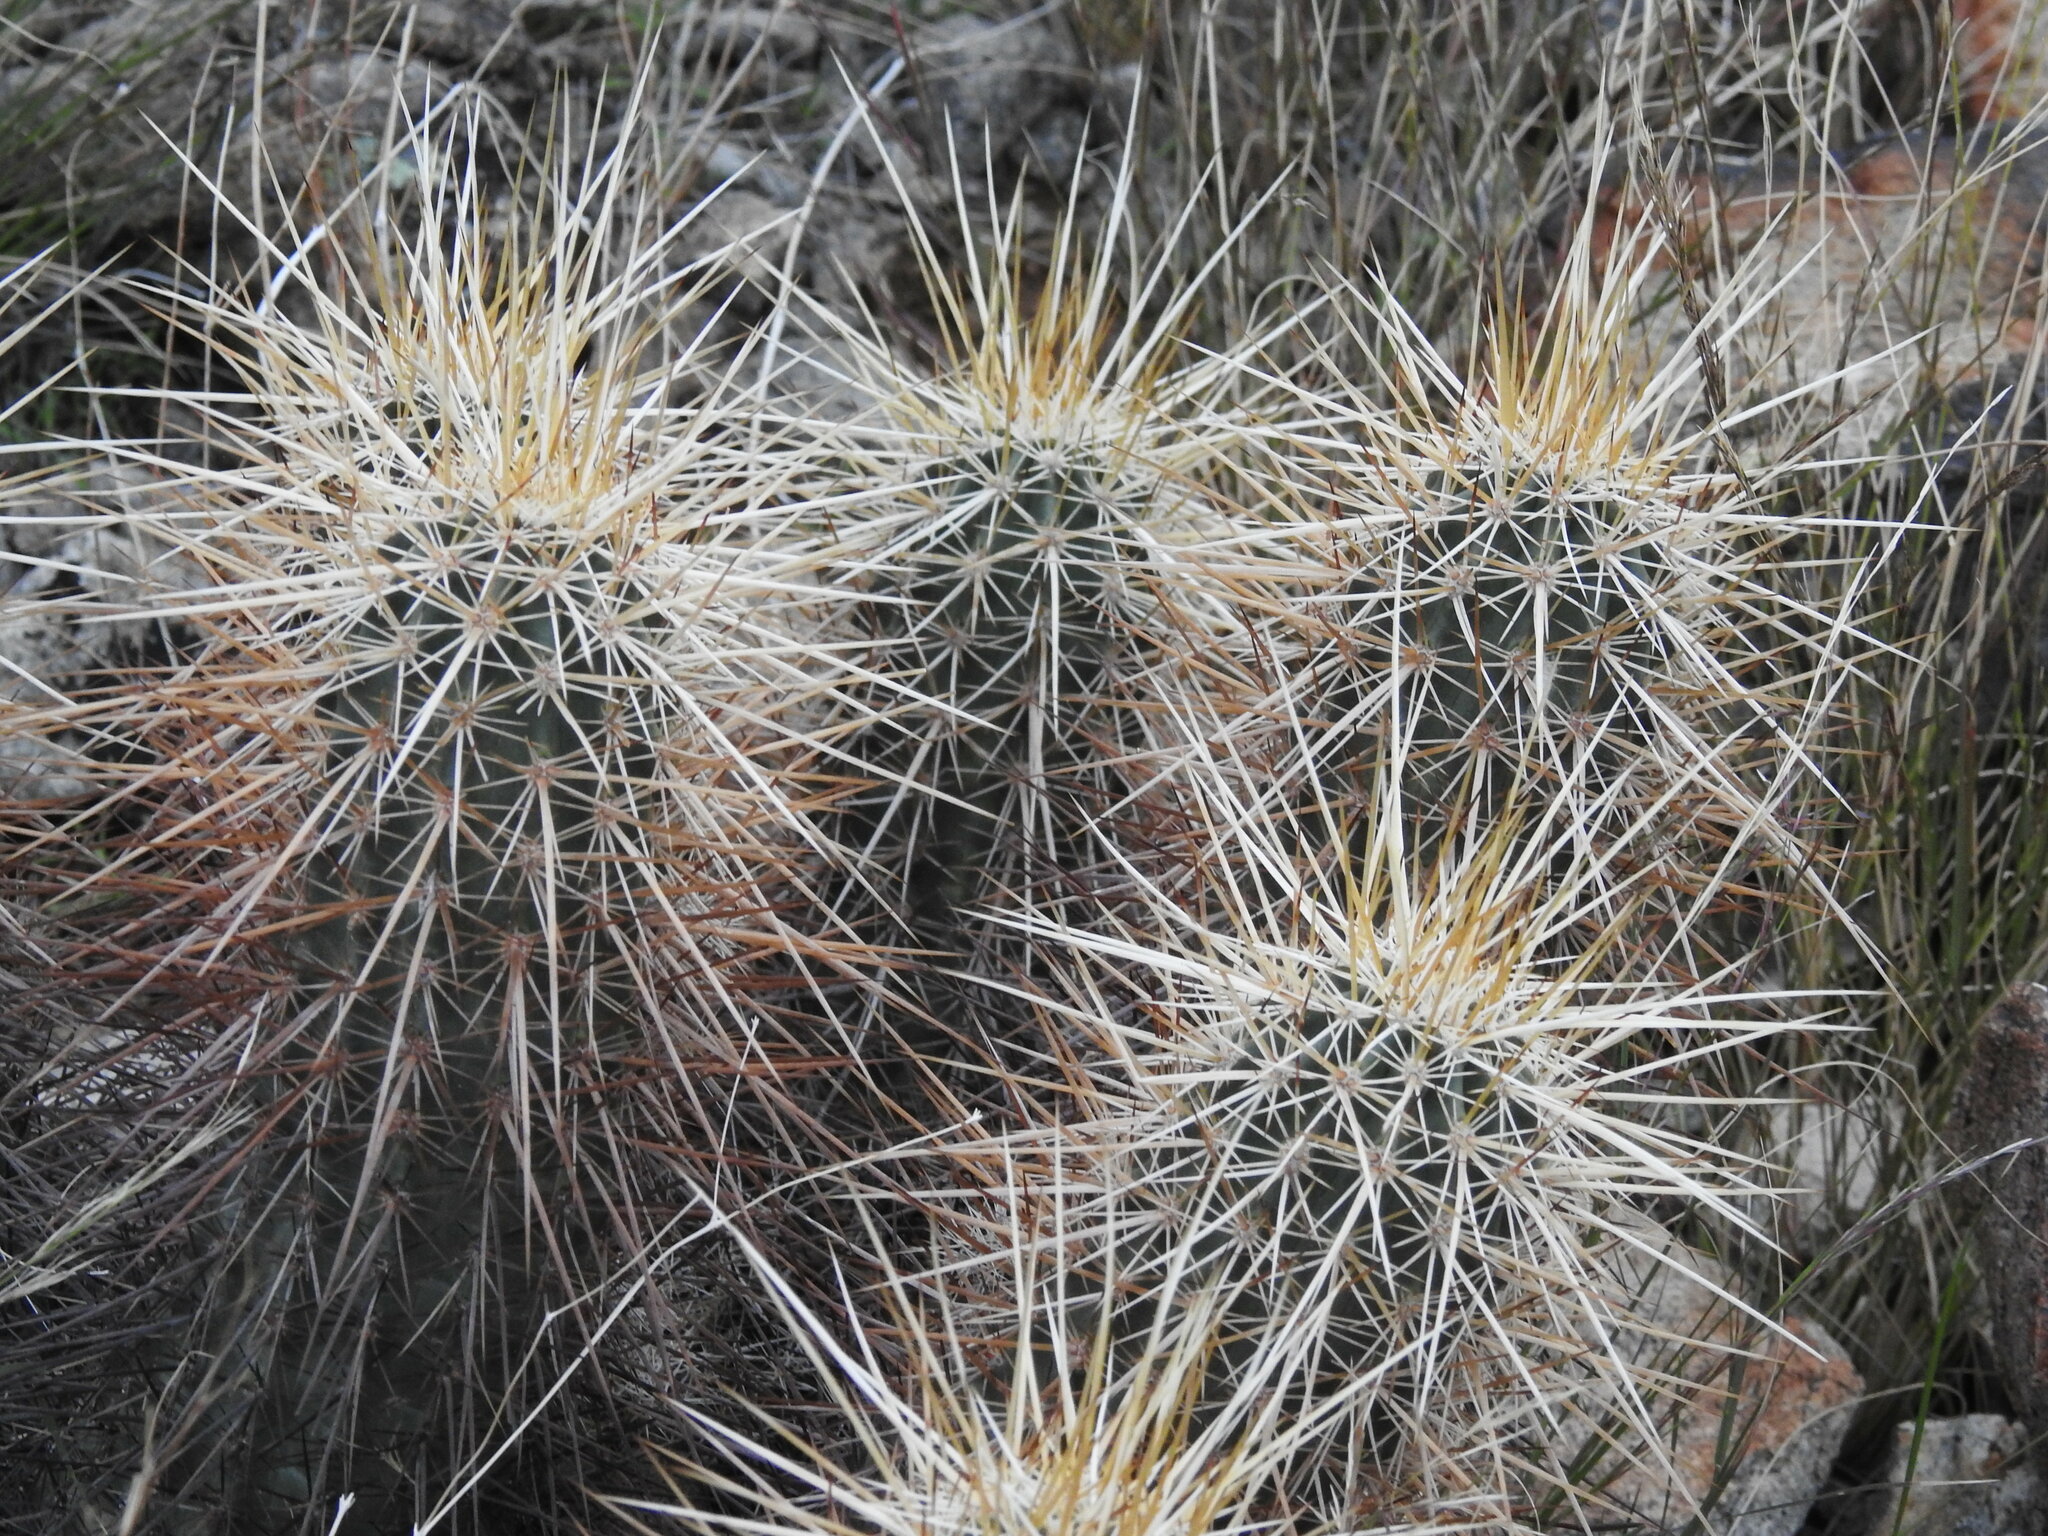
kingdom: Plantae
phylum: Tracheophyta
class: Magnoliopsida
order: Caryophyllales
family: Cactaceae
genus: Echinocereus
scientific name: Echinocereus engelmannii
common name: Engelmann's hedgehog cactus
